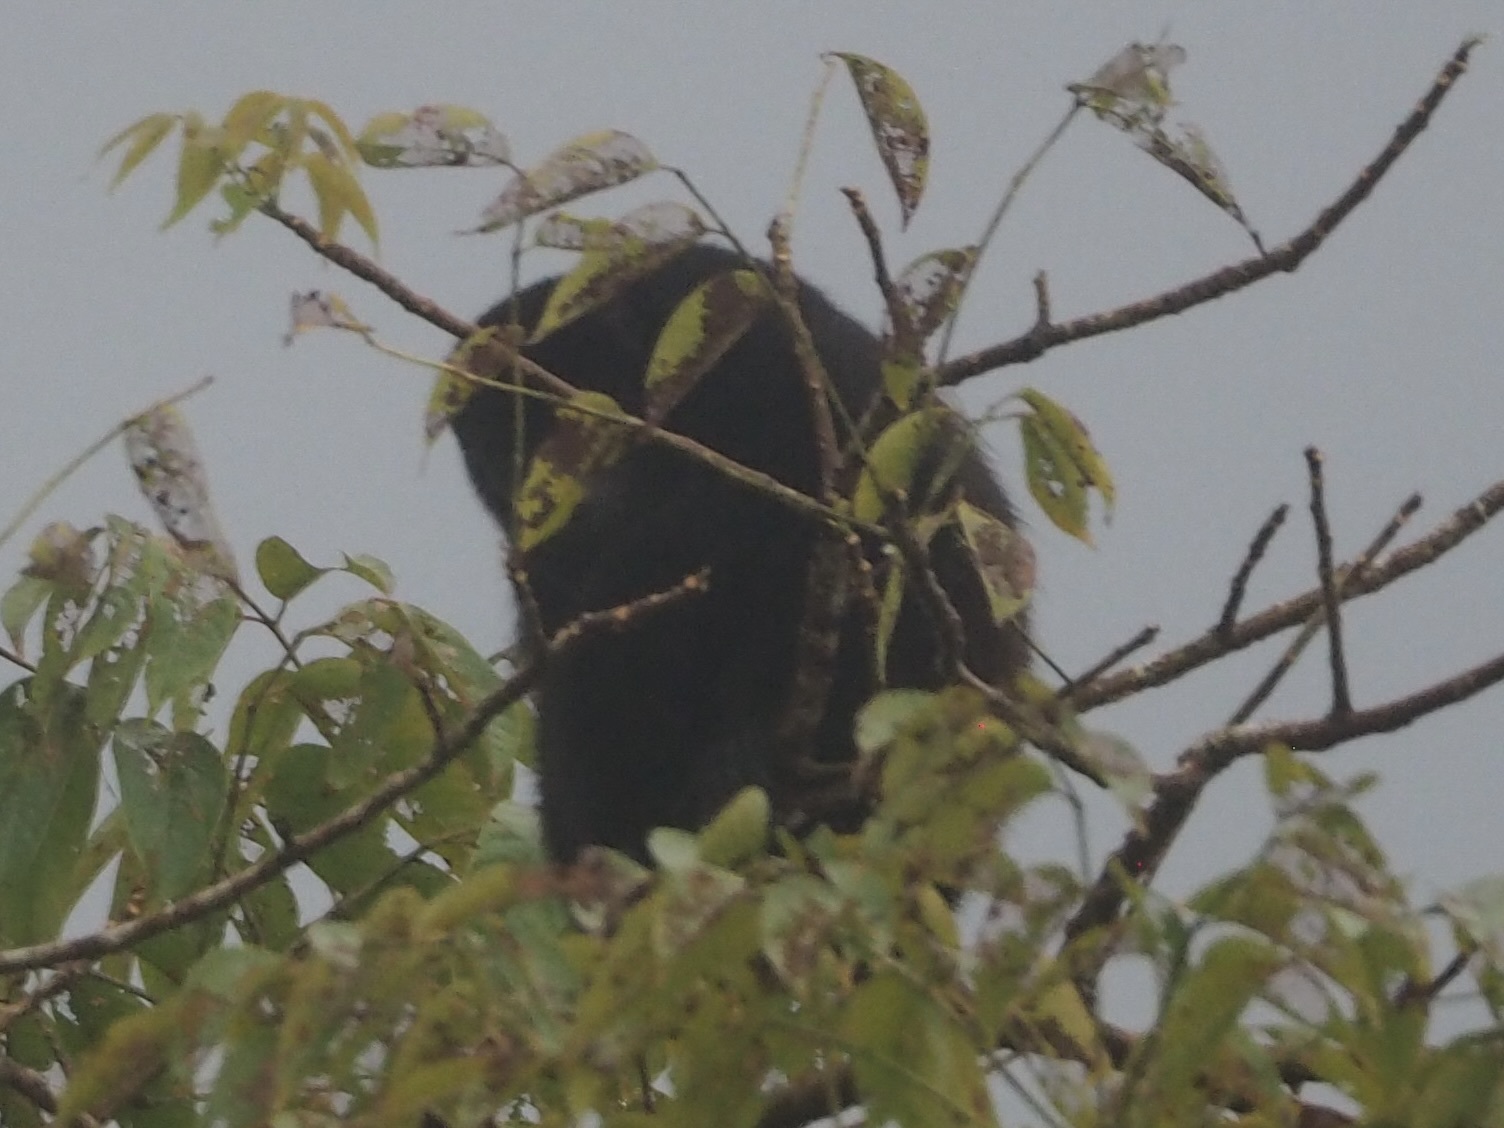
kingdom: Animalia
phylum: Chordata
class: Mammalia
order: Primates
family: Atelidae
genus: Alouatta
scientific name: Alouatta palliata
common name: Mantled howler
